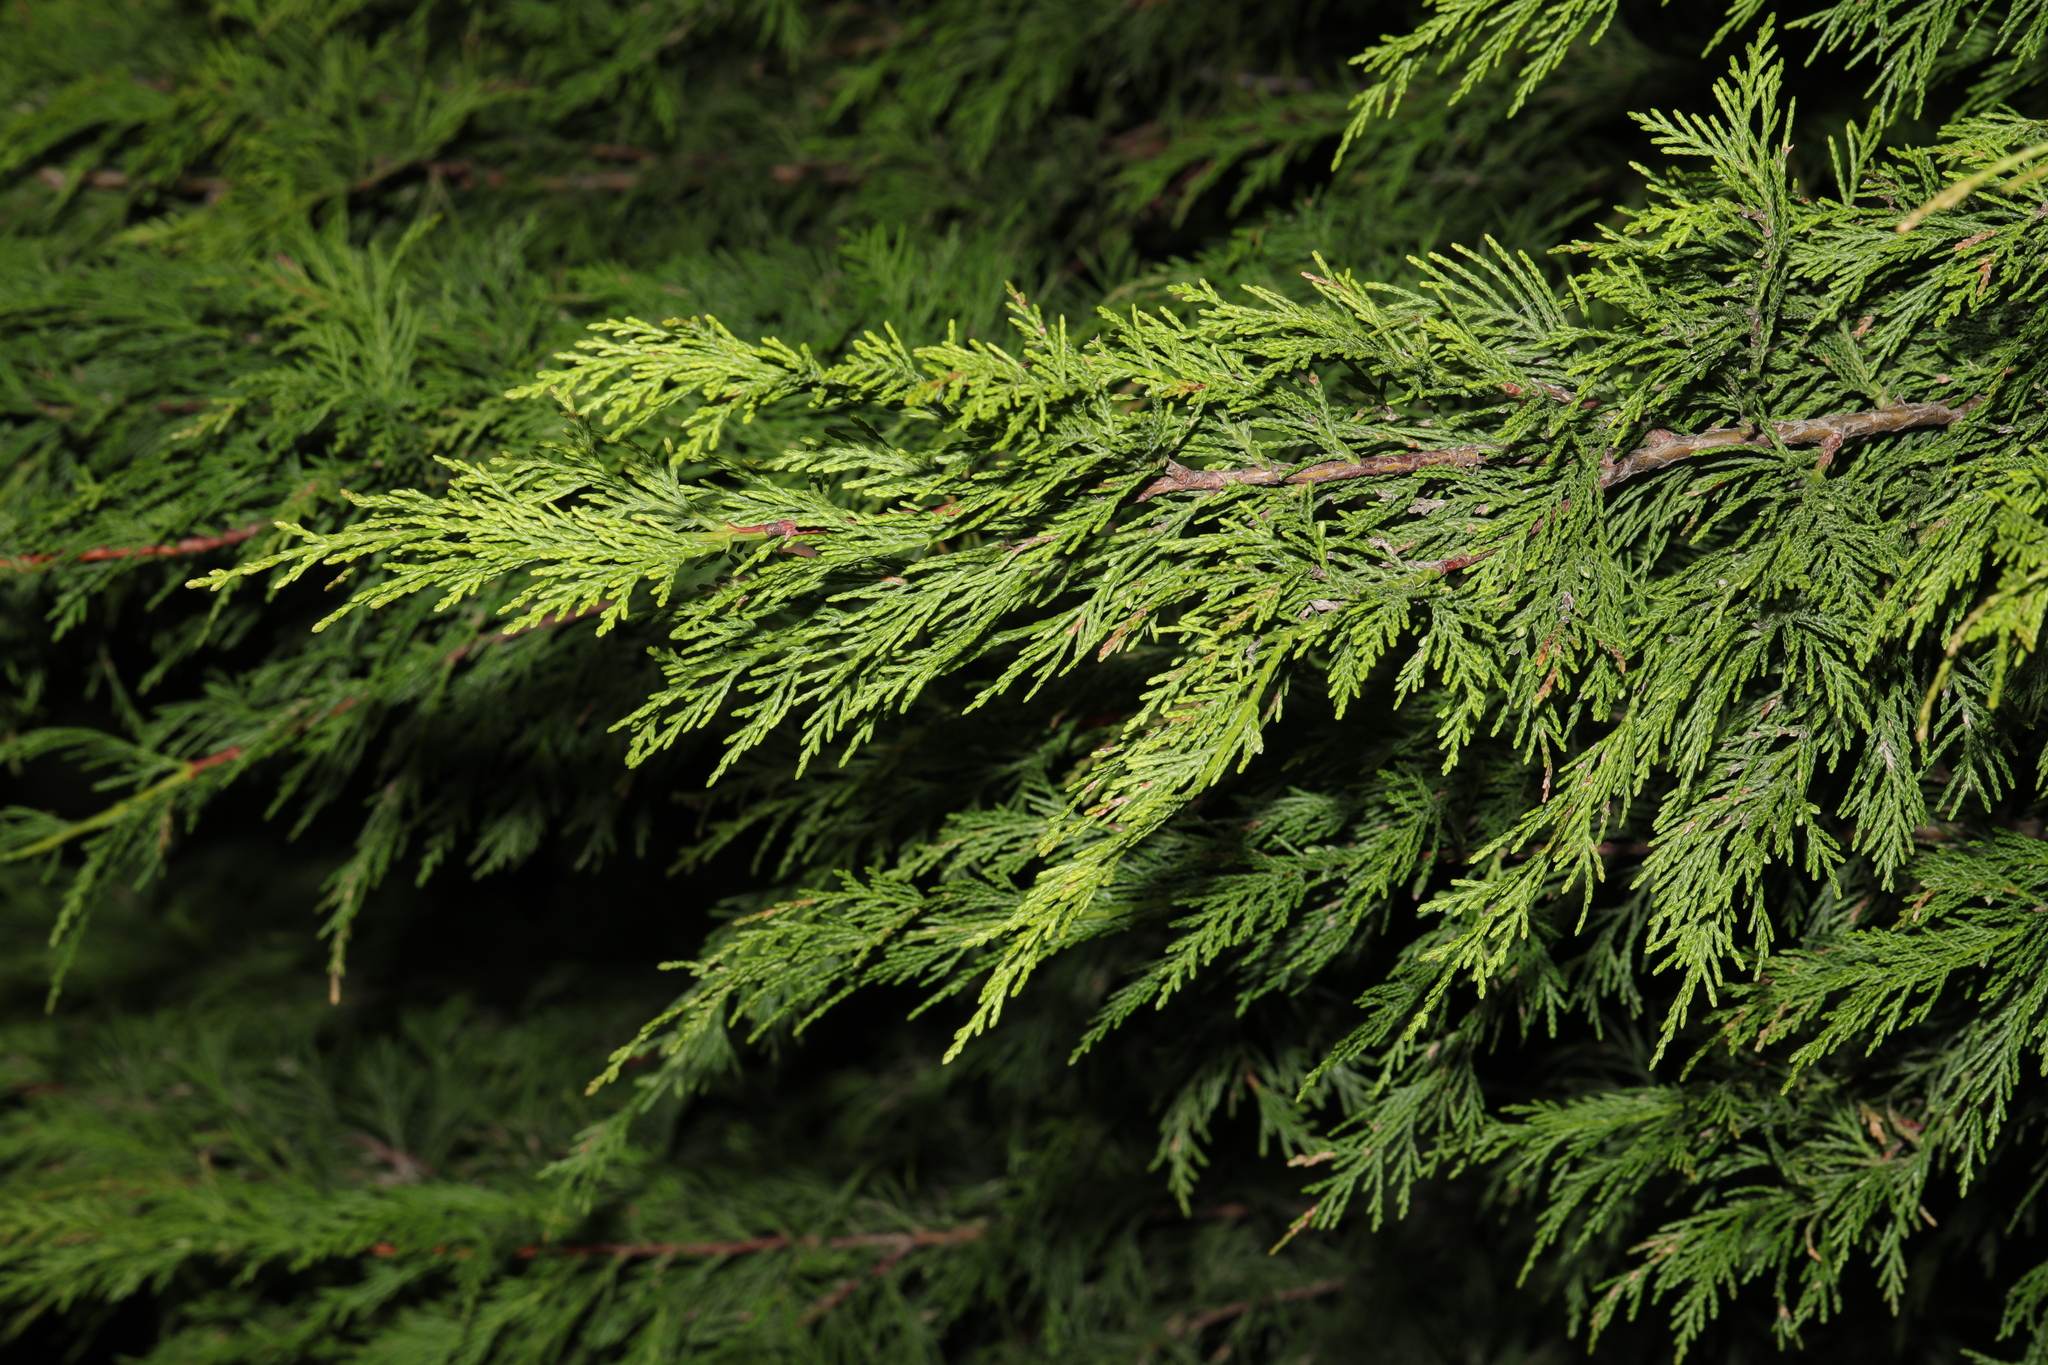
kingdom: Plantae
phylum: Tracheophyta
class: Pinopsida
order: Pinales
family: Cupressaceae
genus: Chamaecyparis
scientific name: Chamaecyparis lawsoniana
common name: Lawson's cypress
